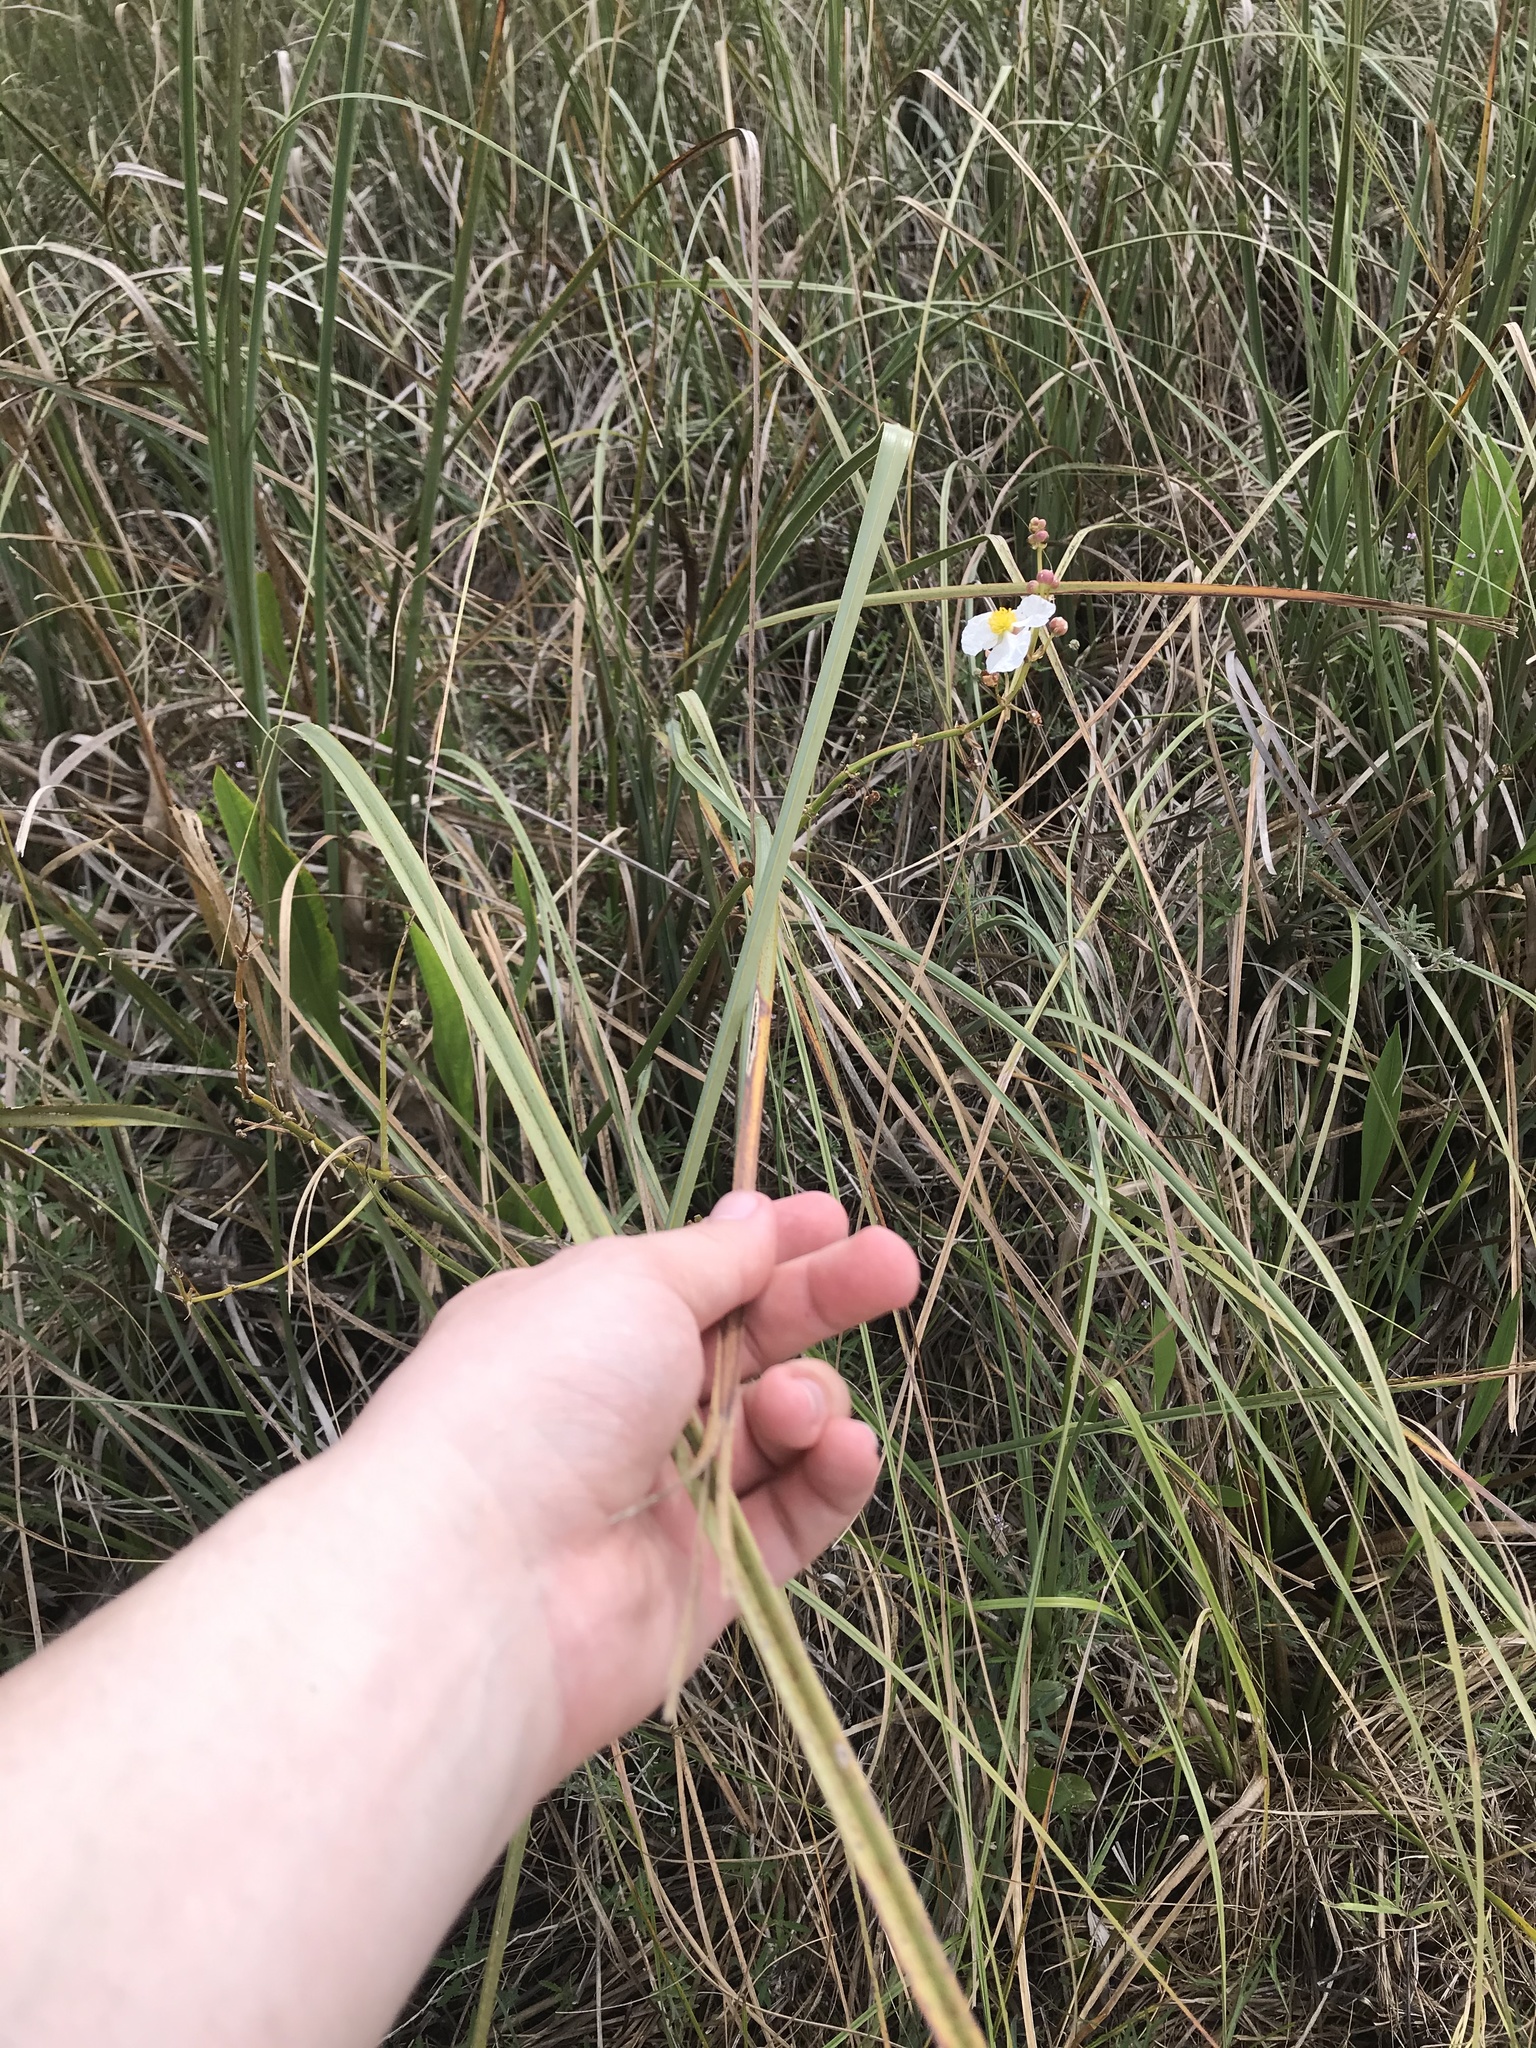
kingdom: Plantae
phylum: Tracheophyta
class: Liliopsida
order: Poales
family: Cyperaceae
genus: Cladium
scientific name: Cladium mariscus
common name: Great fen-sedge
